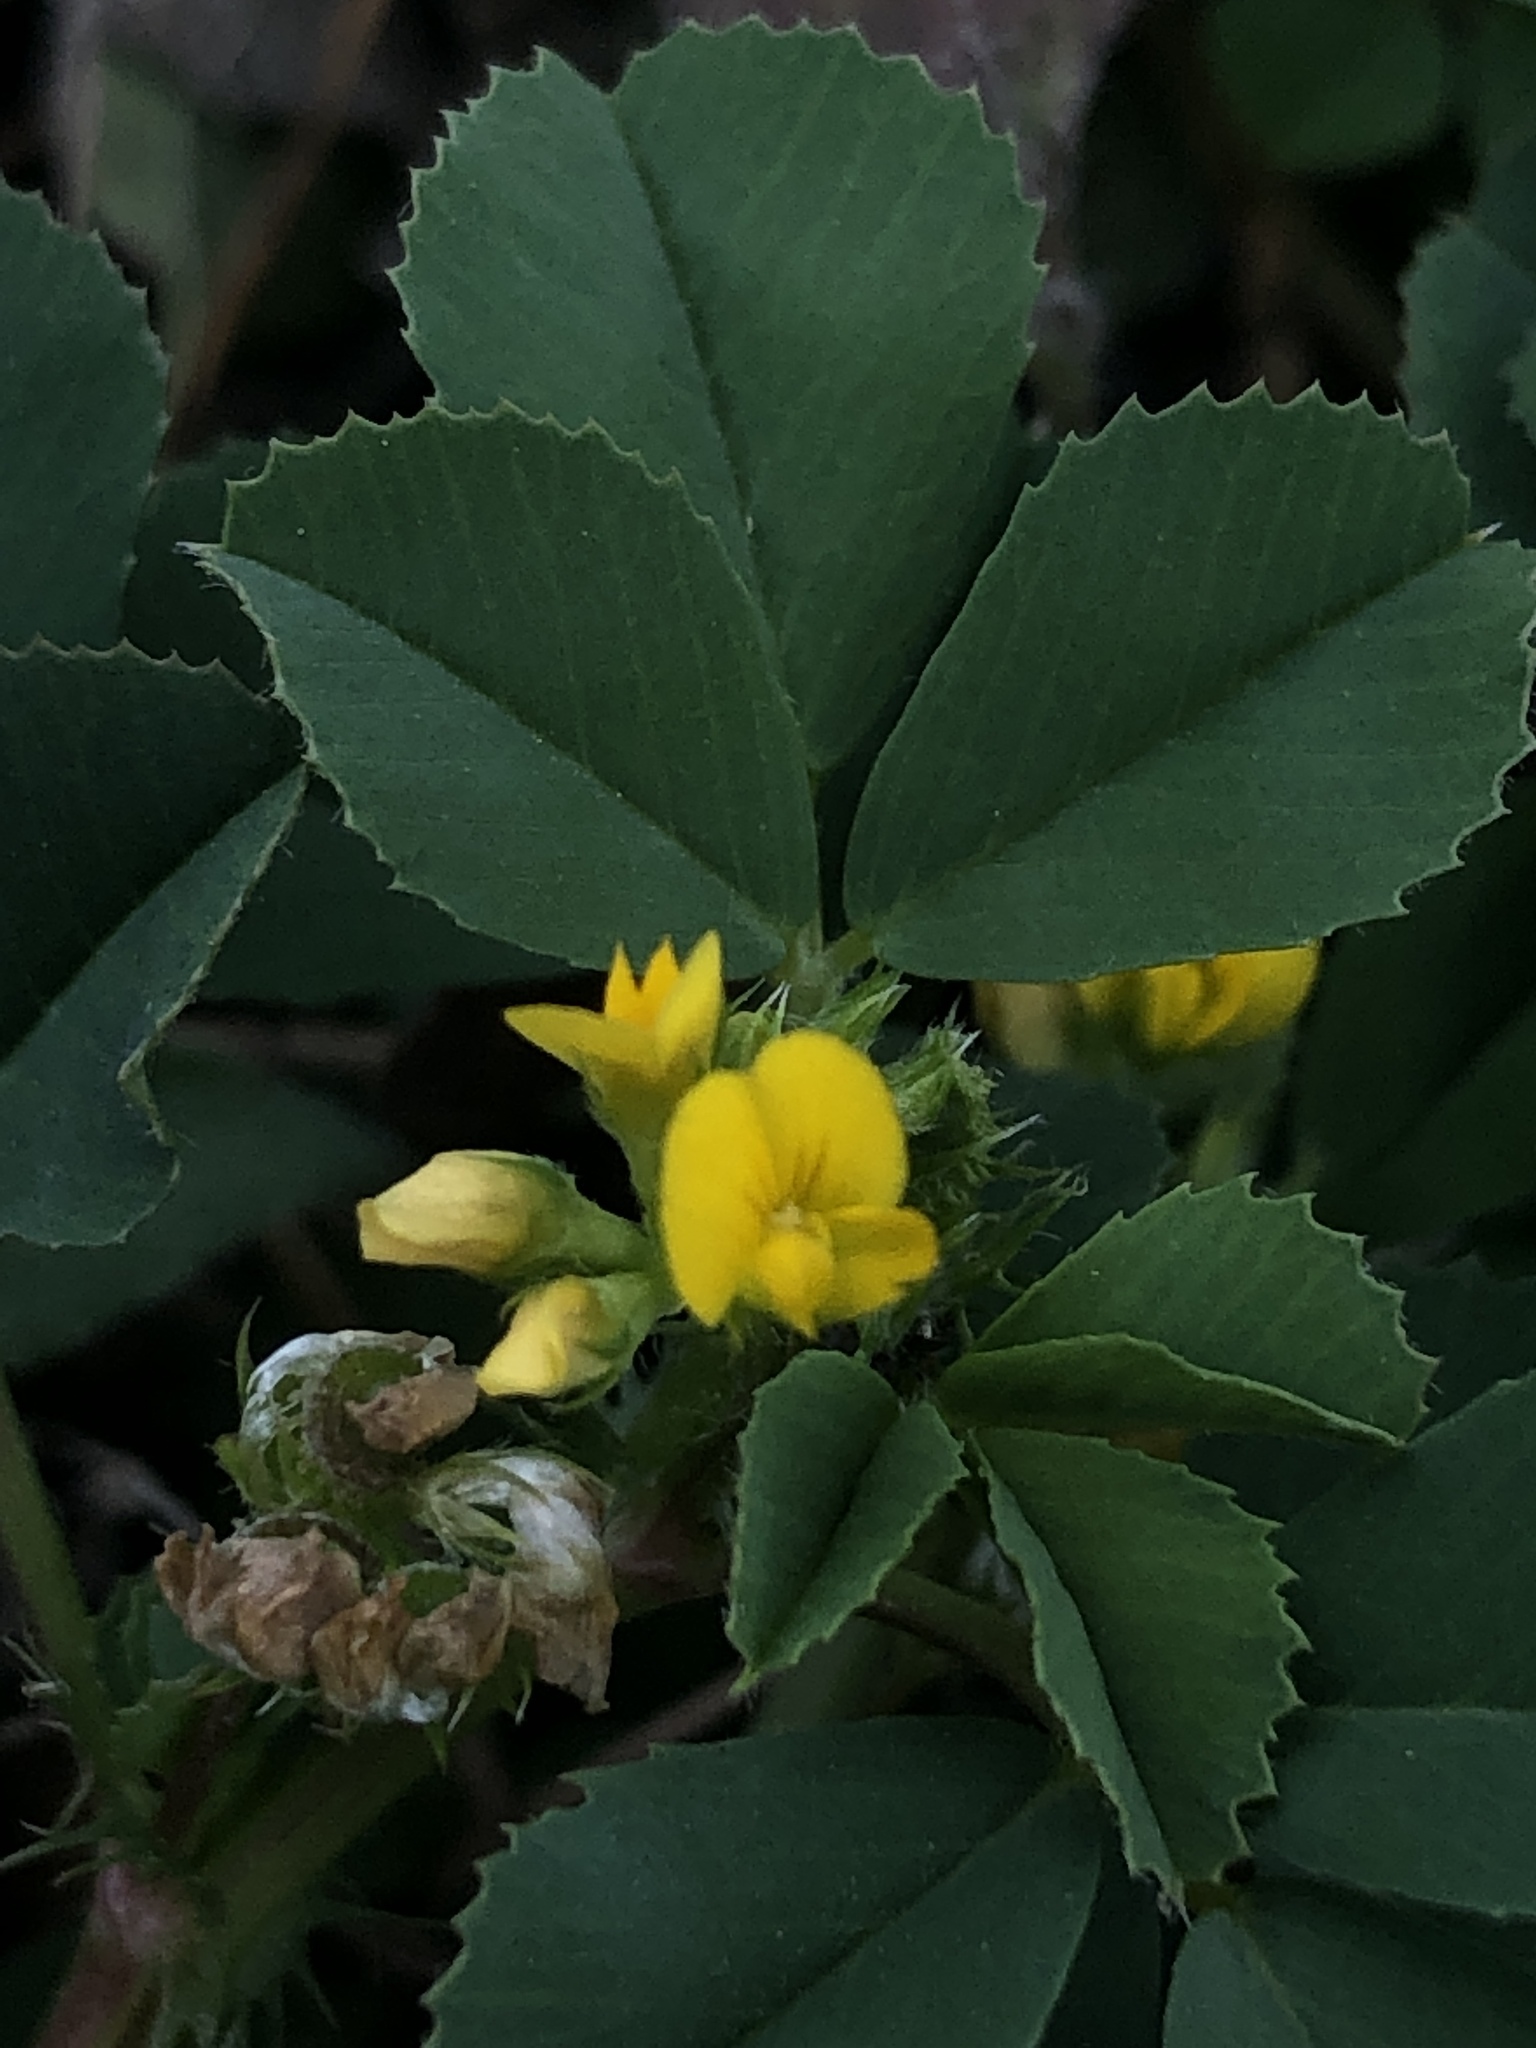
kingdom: Plantae
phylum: Tracheophyta
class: Magnoliopsida
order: Fabales
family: Fabaceae
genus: Medicago
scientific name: Medicago polymorpha
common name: Burclover
